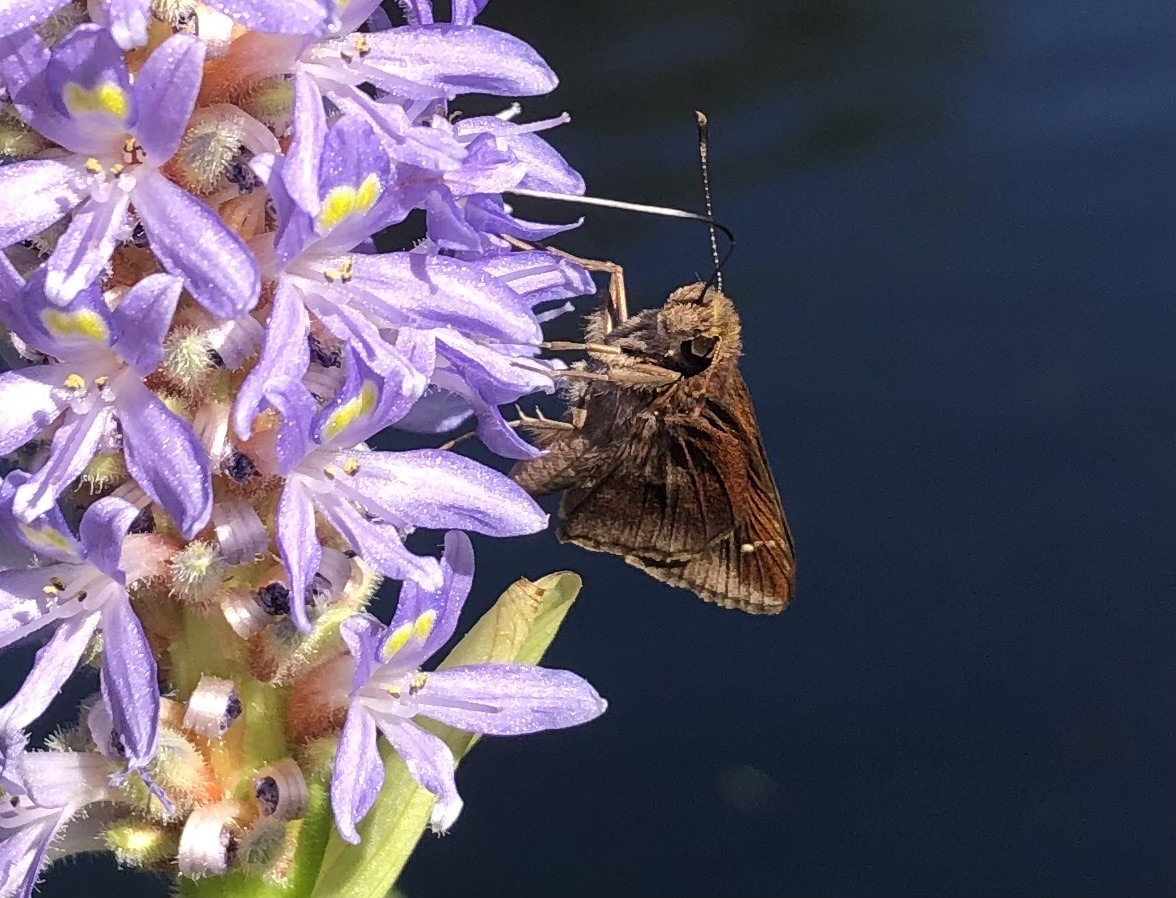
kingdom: Animalia
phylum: Arthropoda
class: Insecta
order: Lepidoptera
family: Hesperiidae
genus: Lerema
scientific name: Lerema accius
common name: Clouded skipper
